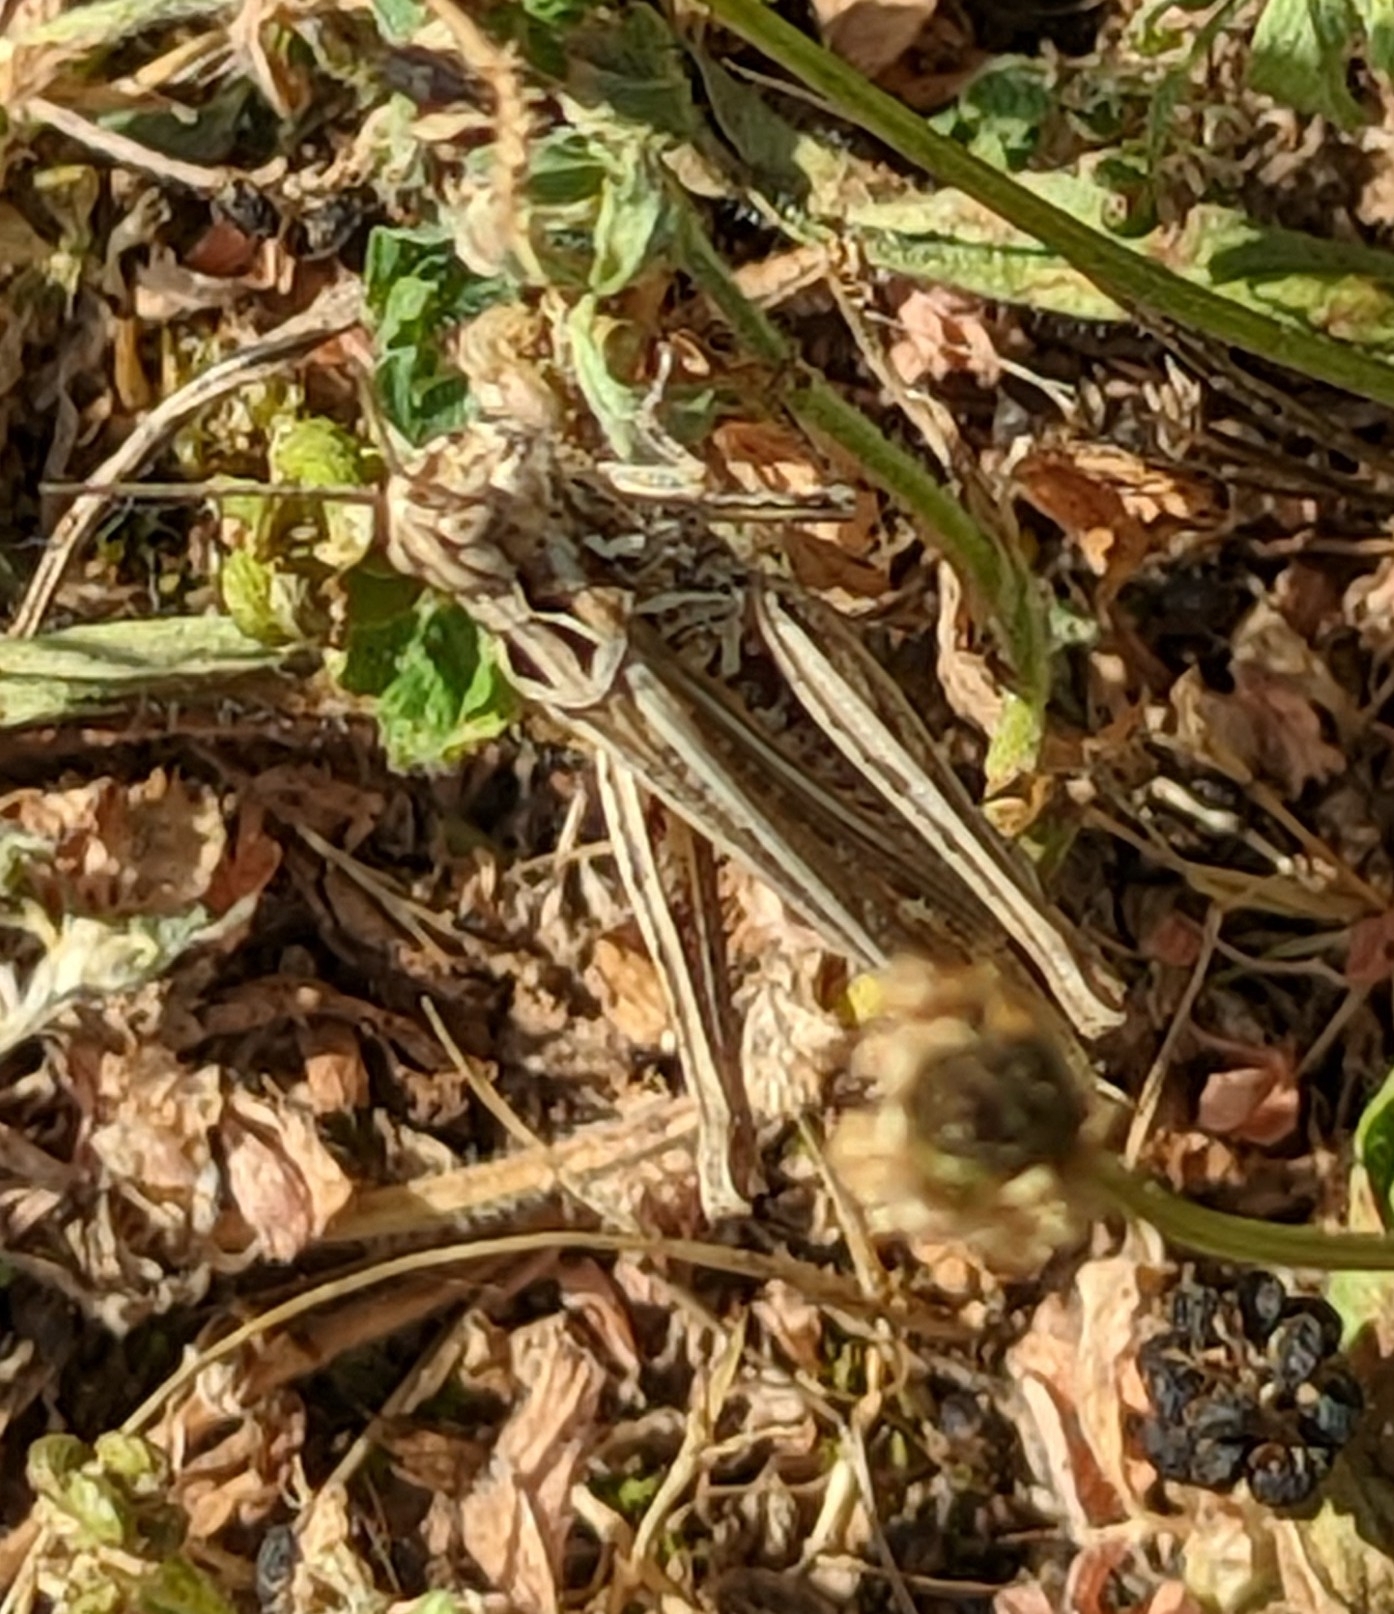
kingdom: Animalia
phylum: Arthropoda
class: Insecta
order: Orthoptera
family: Acrididae
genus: Chorthippus
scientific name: Chorthippus brunneus
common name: Field grasshopper
